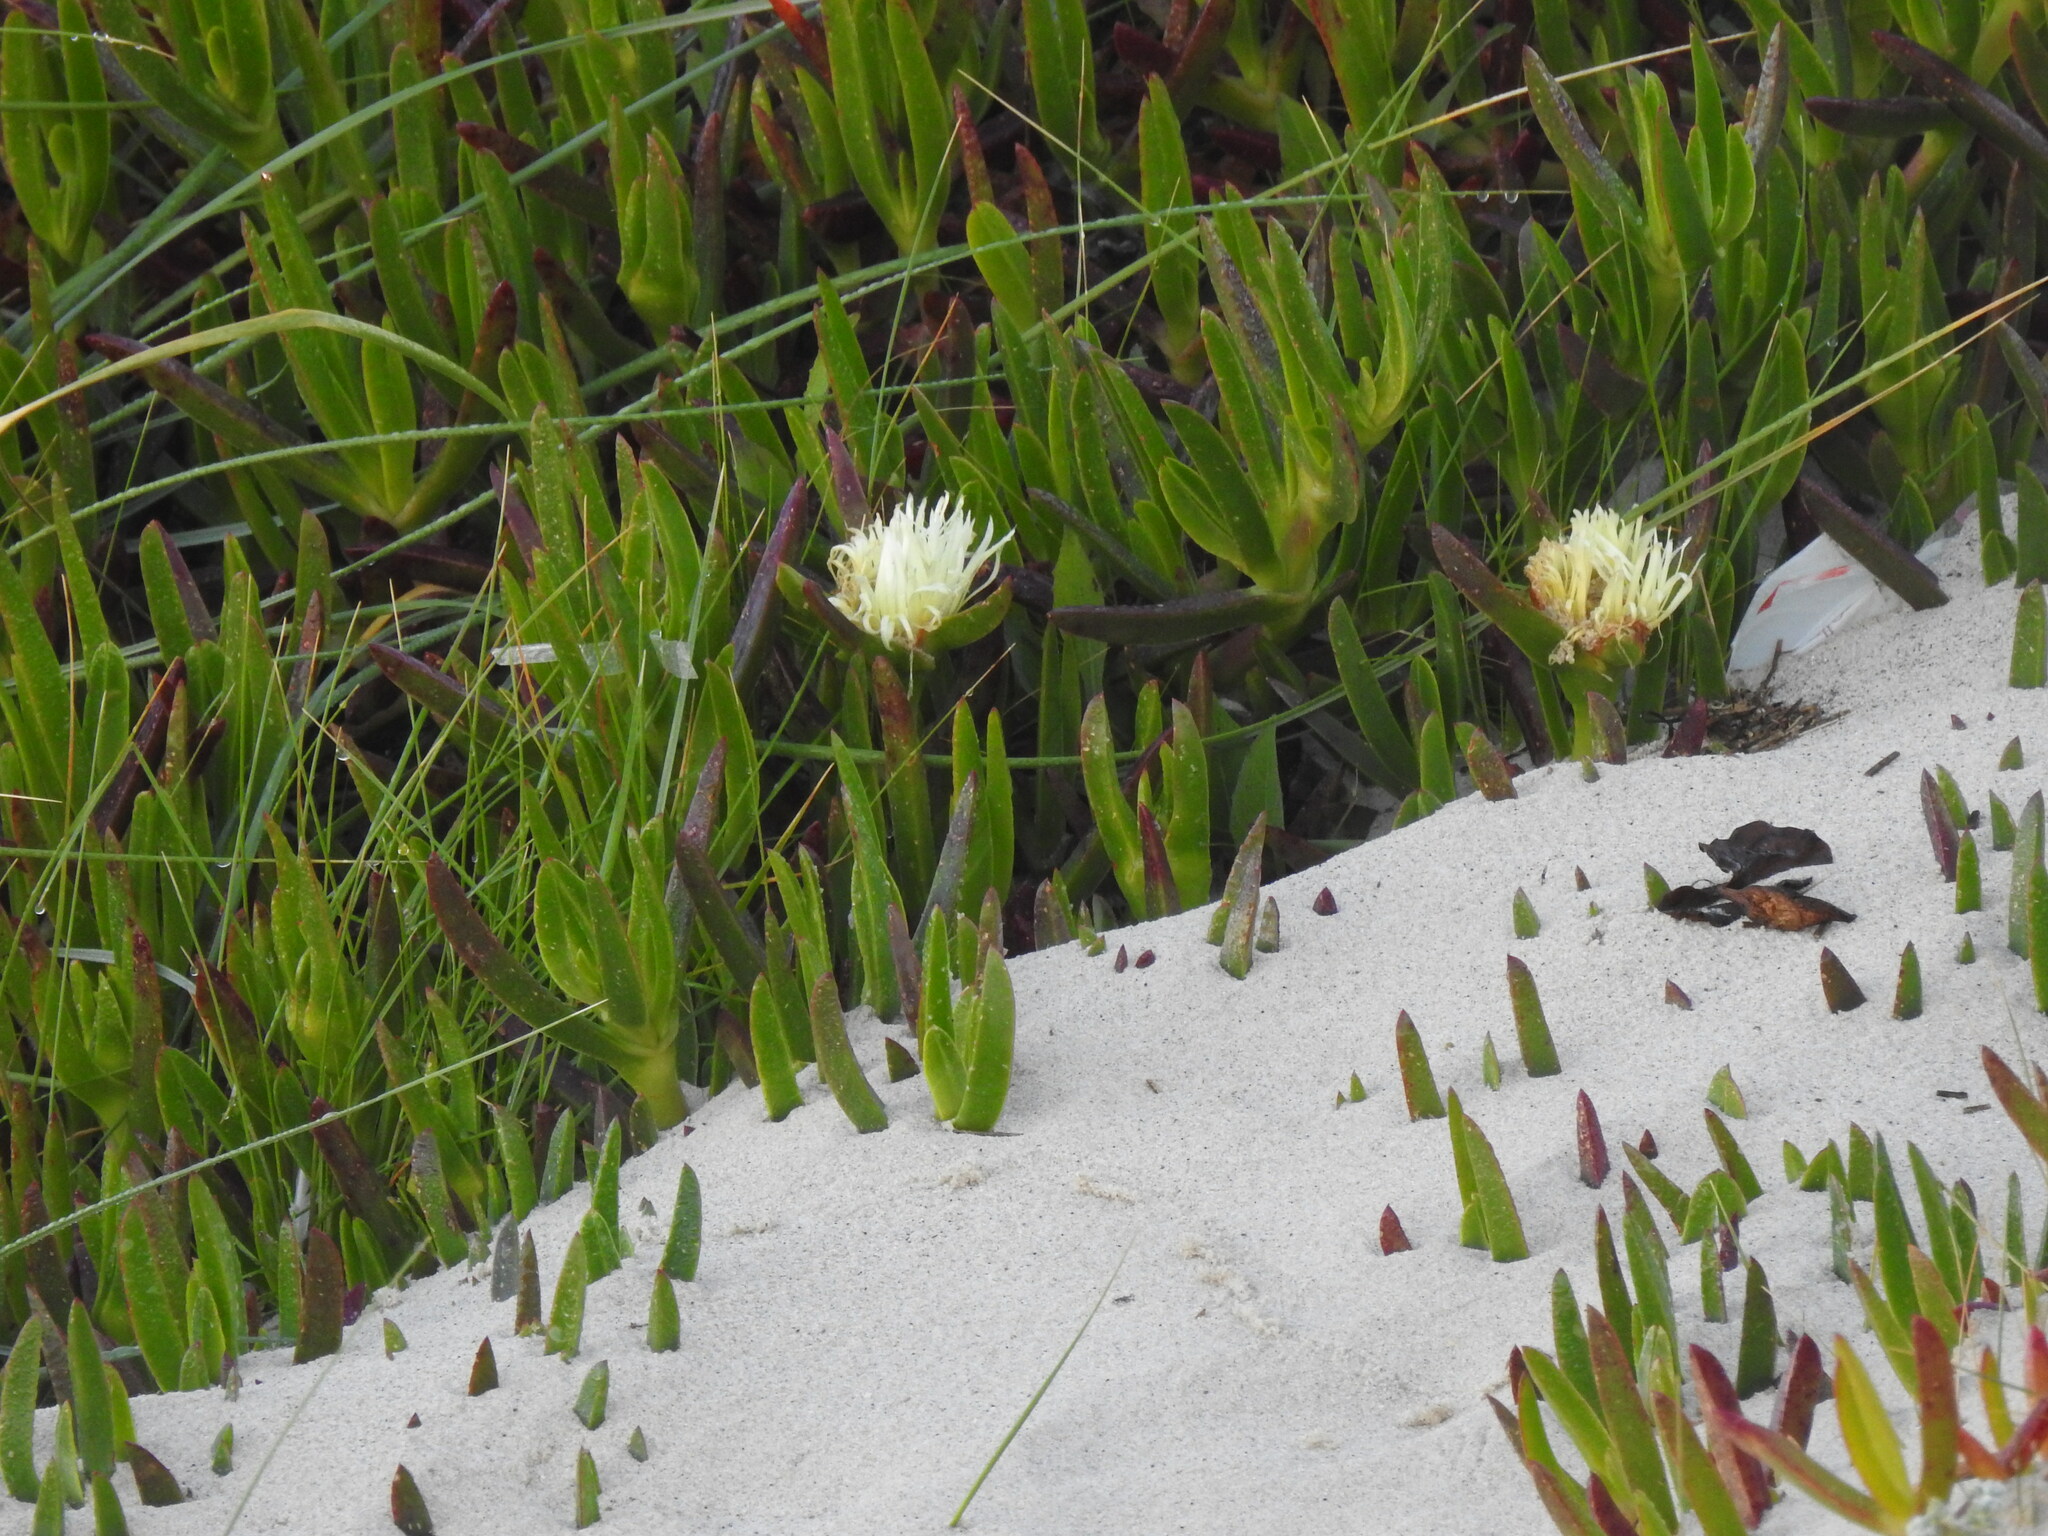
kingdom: Plantae
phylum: Tracheophyta
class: Magnoliopsida
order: Caryophyllales
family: Aizoaceae
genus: Carpobrotus
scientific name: Carpobrotus edulis
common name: Hottentot-fig
